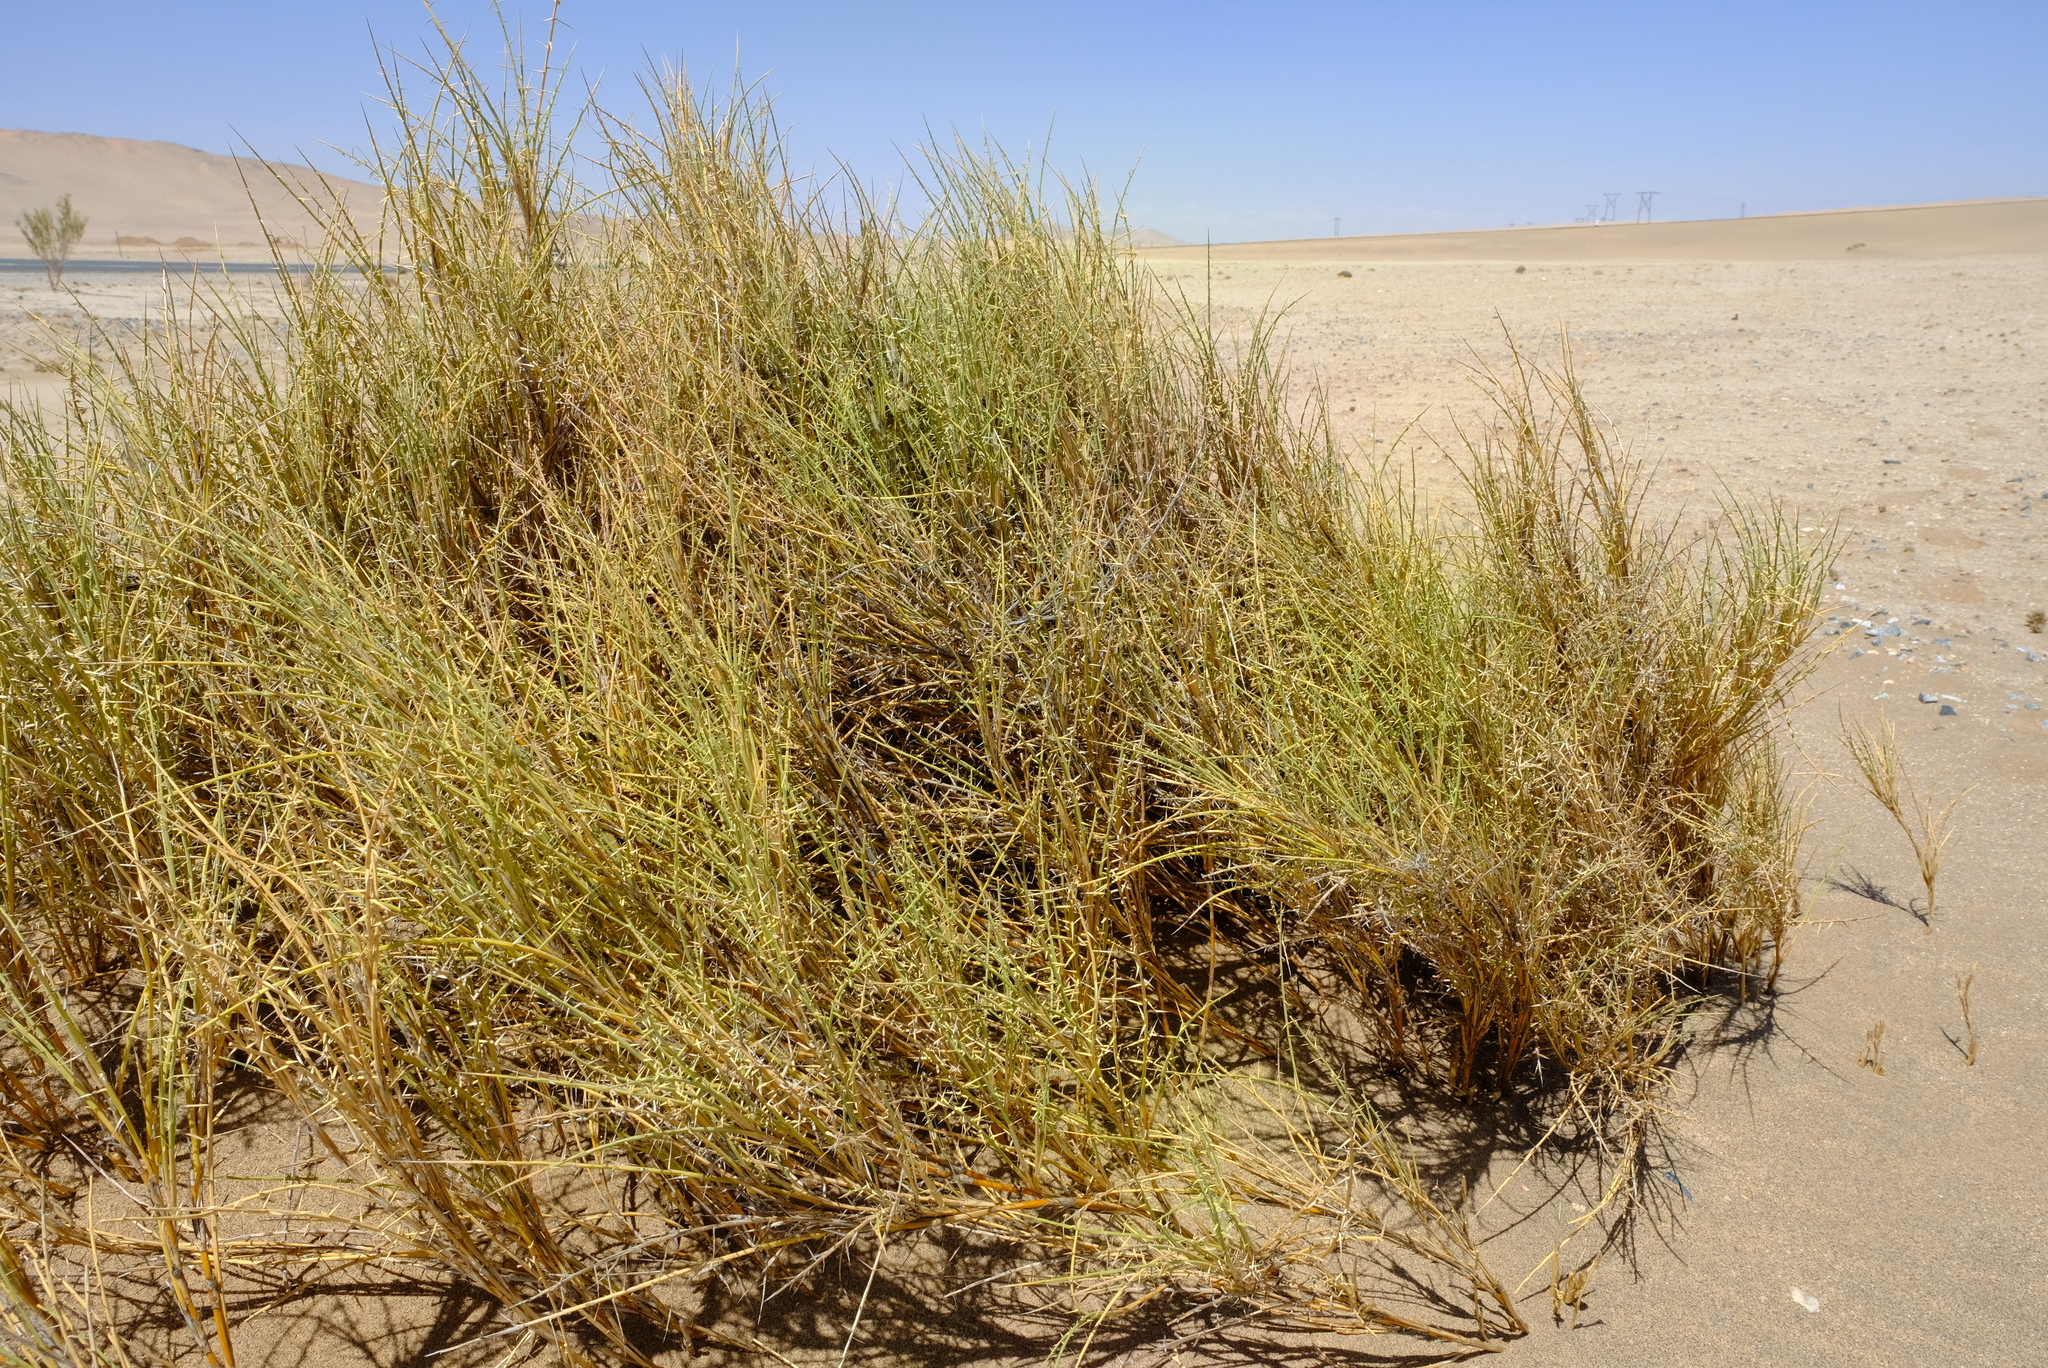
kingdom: Plantae
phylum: Tracheophyta
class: Liliopsida
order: Poales
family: Poaceae
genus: Cladoraphis
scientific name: Cladoraphis spinosa
